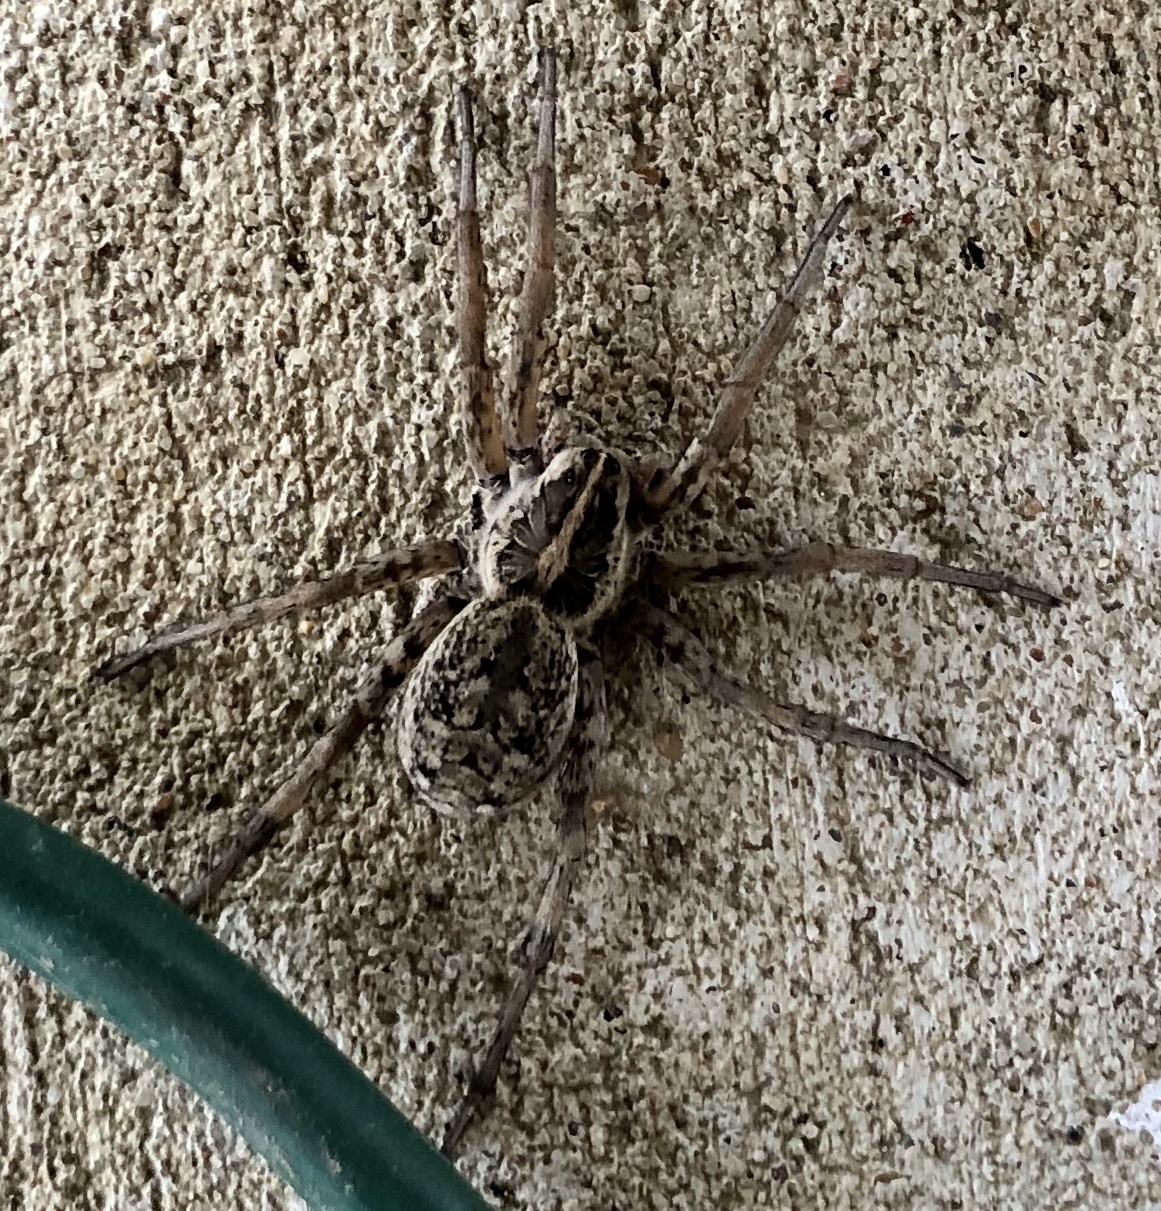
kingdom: Animalia
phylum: Arthropoda
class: Arachnida
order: Araneae
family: Lycosidae
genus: Hogna
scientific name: Hogna antelucana
